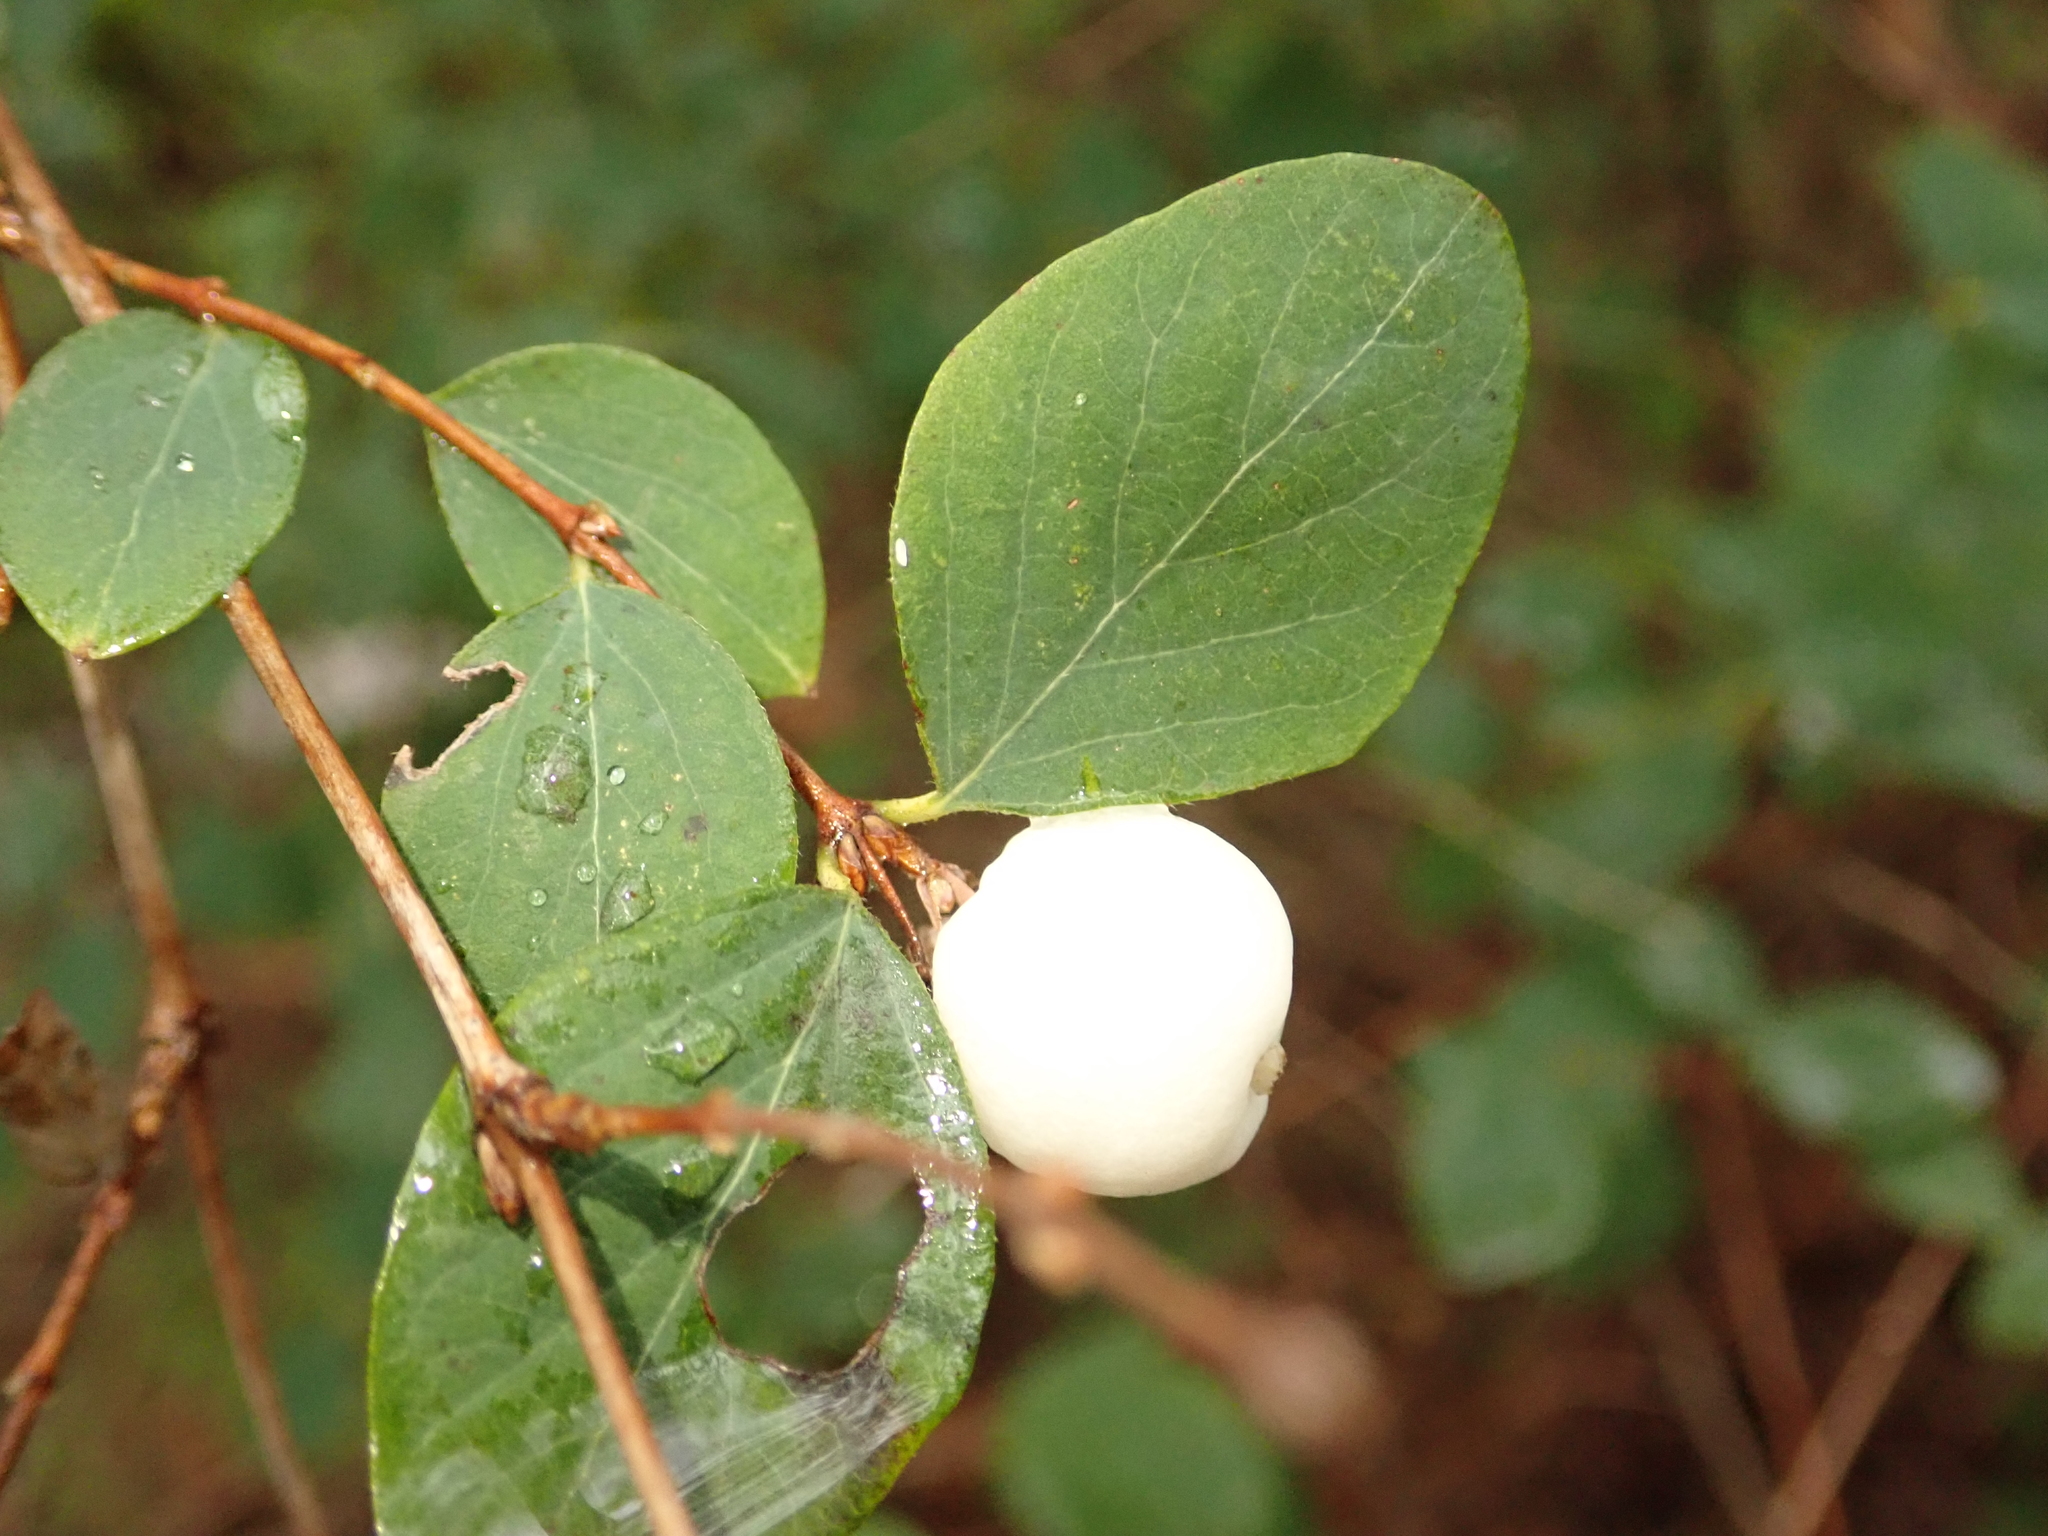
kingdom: Plantae
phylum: Tracheophyta
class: Magnoliopsida
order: Dipsacales
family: Caprifoliaceae
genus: Symphoricarpos
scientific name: Symphoricarpos albus
